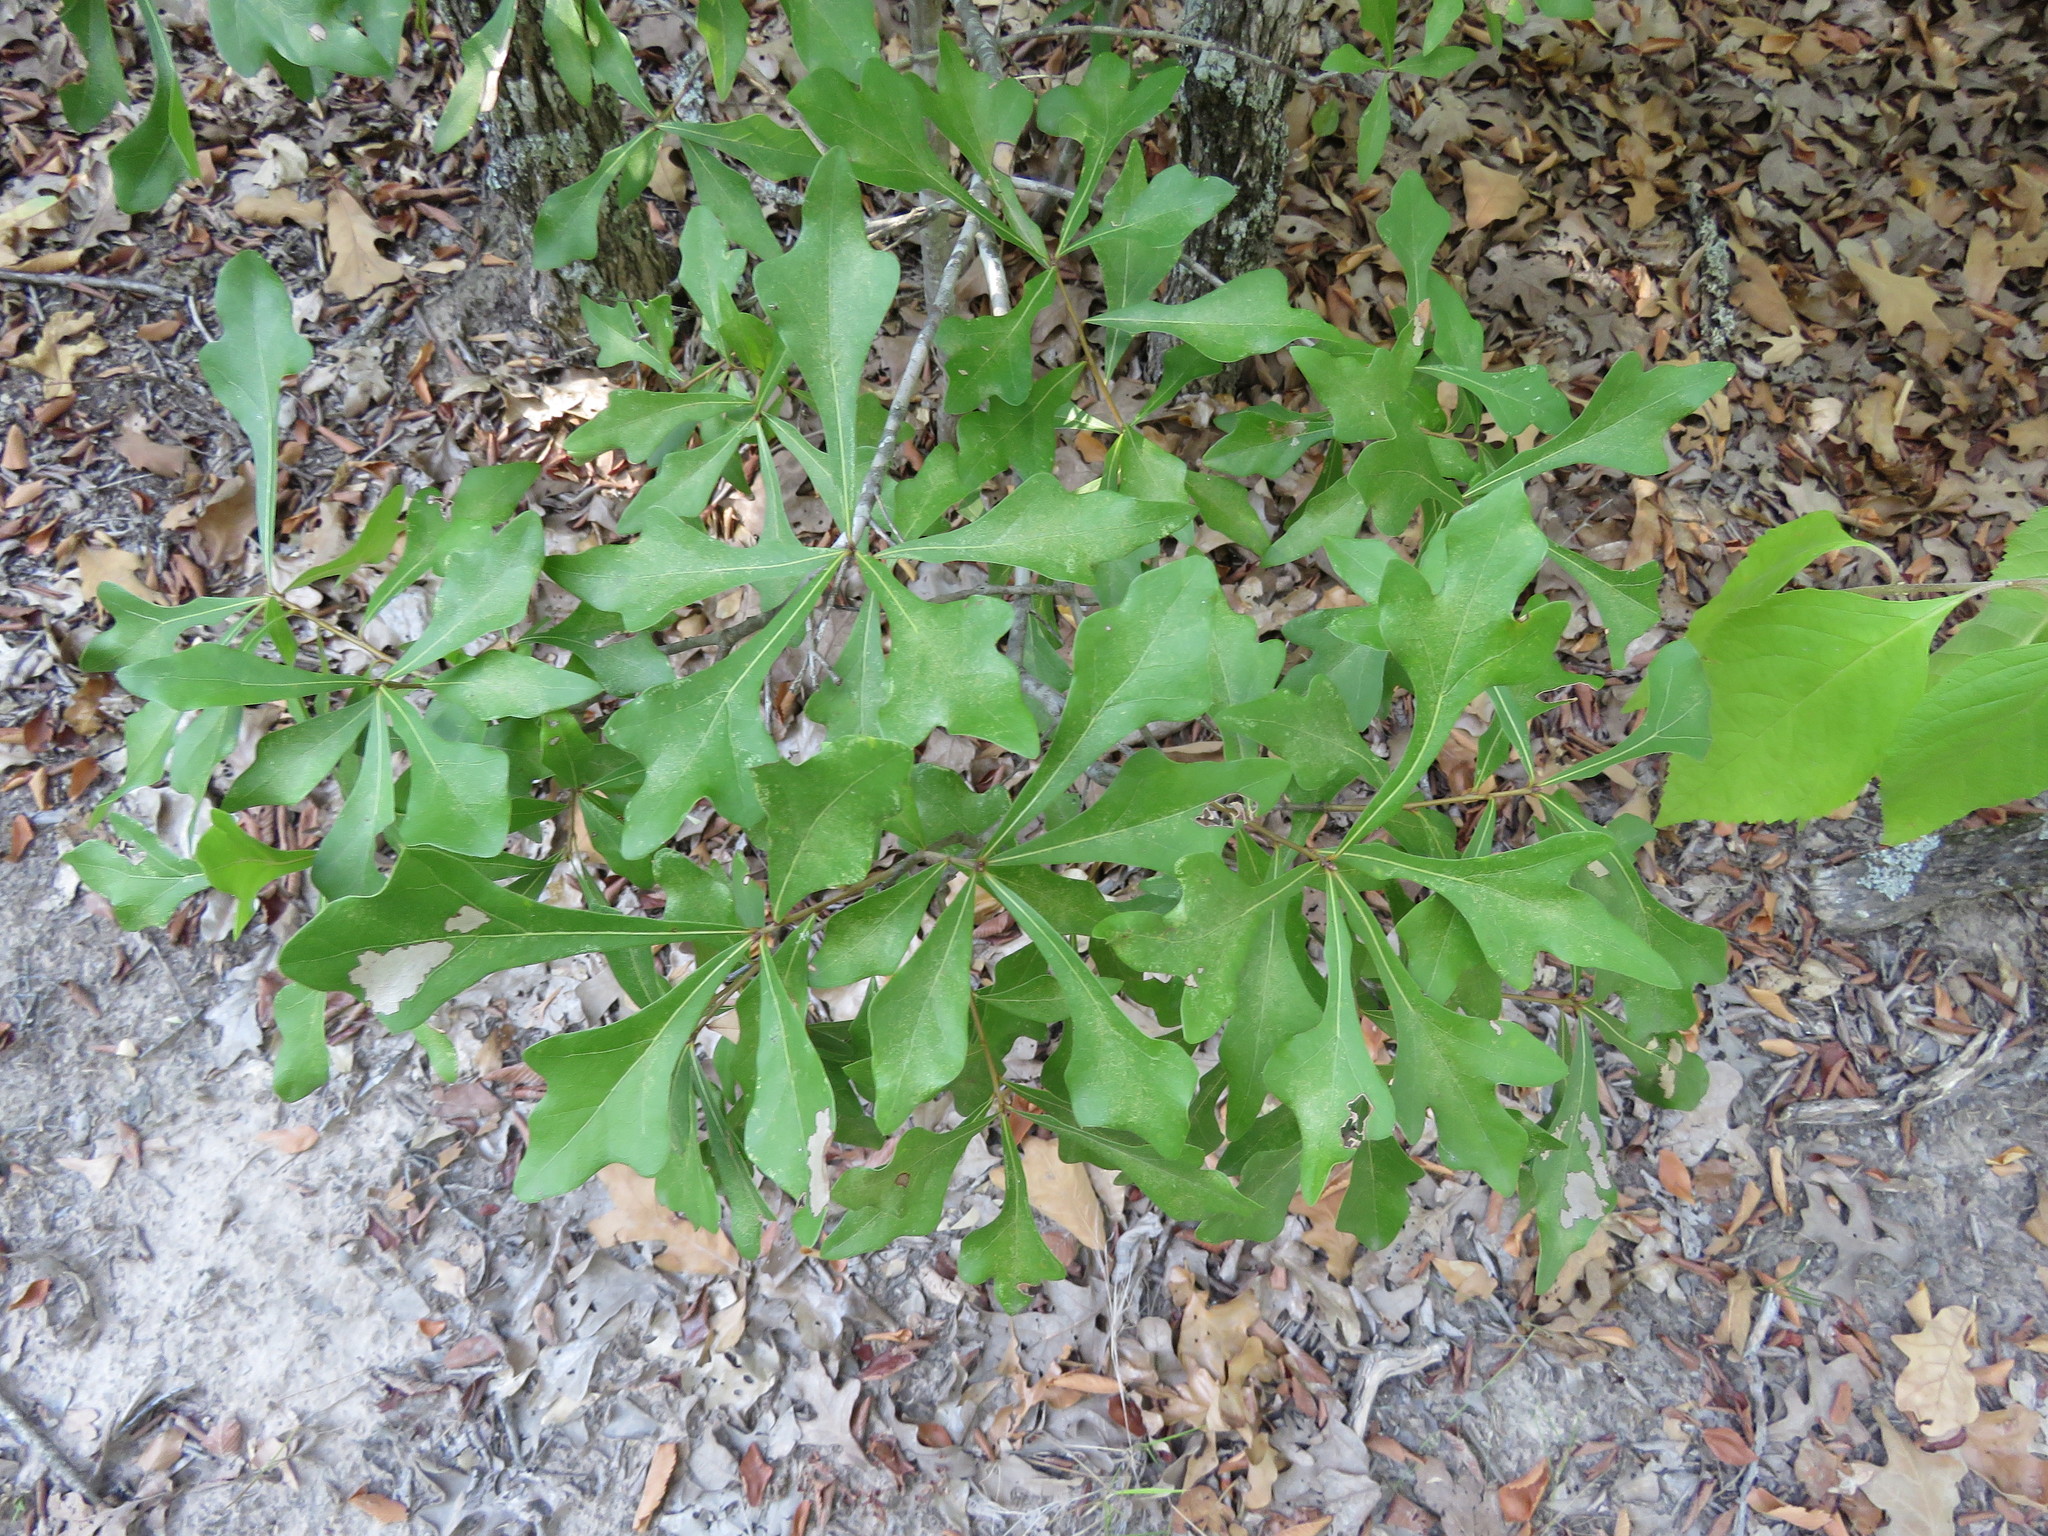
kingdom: Plantae
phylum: Tracheophyta
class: Magnoliopsida
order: Fagales
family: Fagaceae
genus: Quercus
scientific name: Quercus nigra
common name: Water oak
